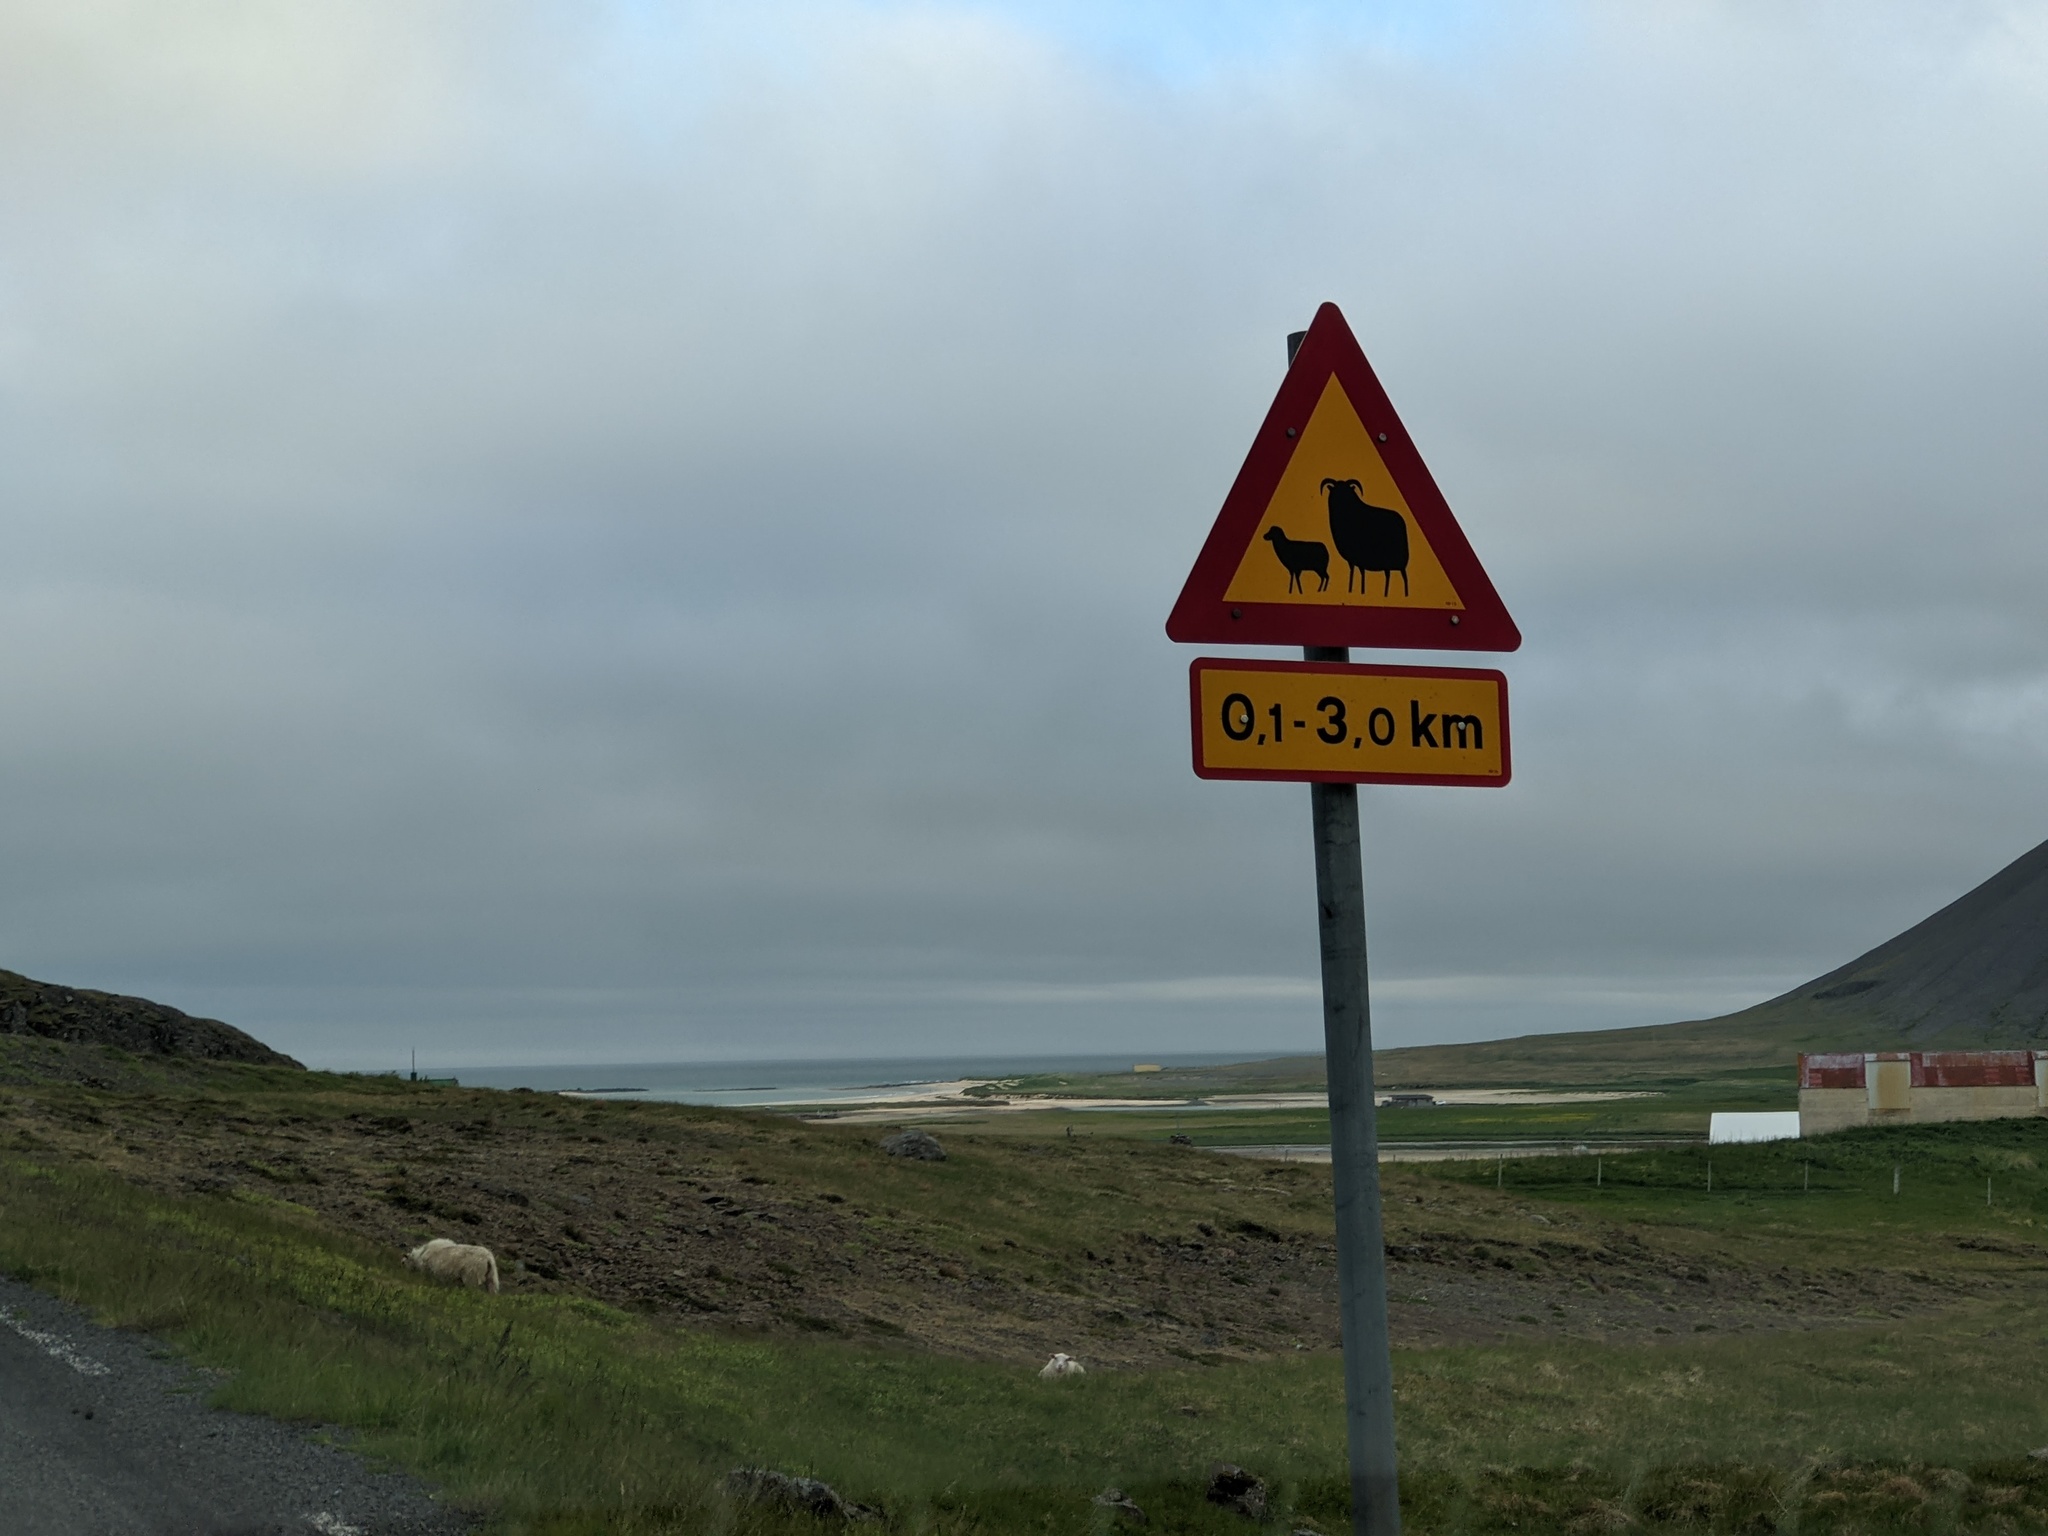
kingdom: Animalia
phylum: Chordata
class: Mammalia
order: Artiodactyla
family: Bovidae
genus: Ovis
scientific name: Ovis aries
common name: Domestic sheep
